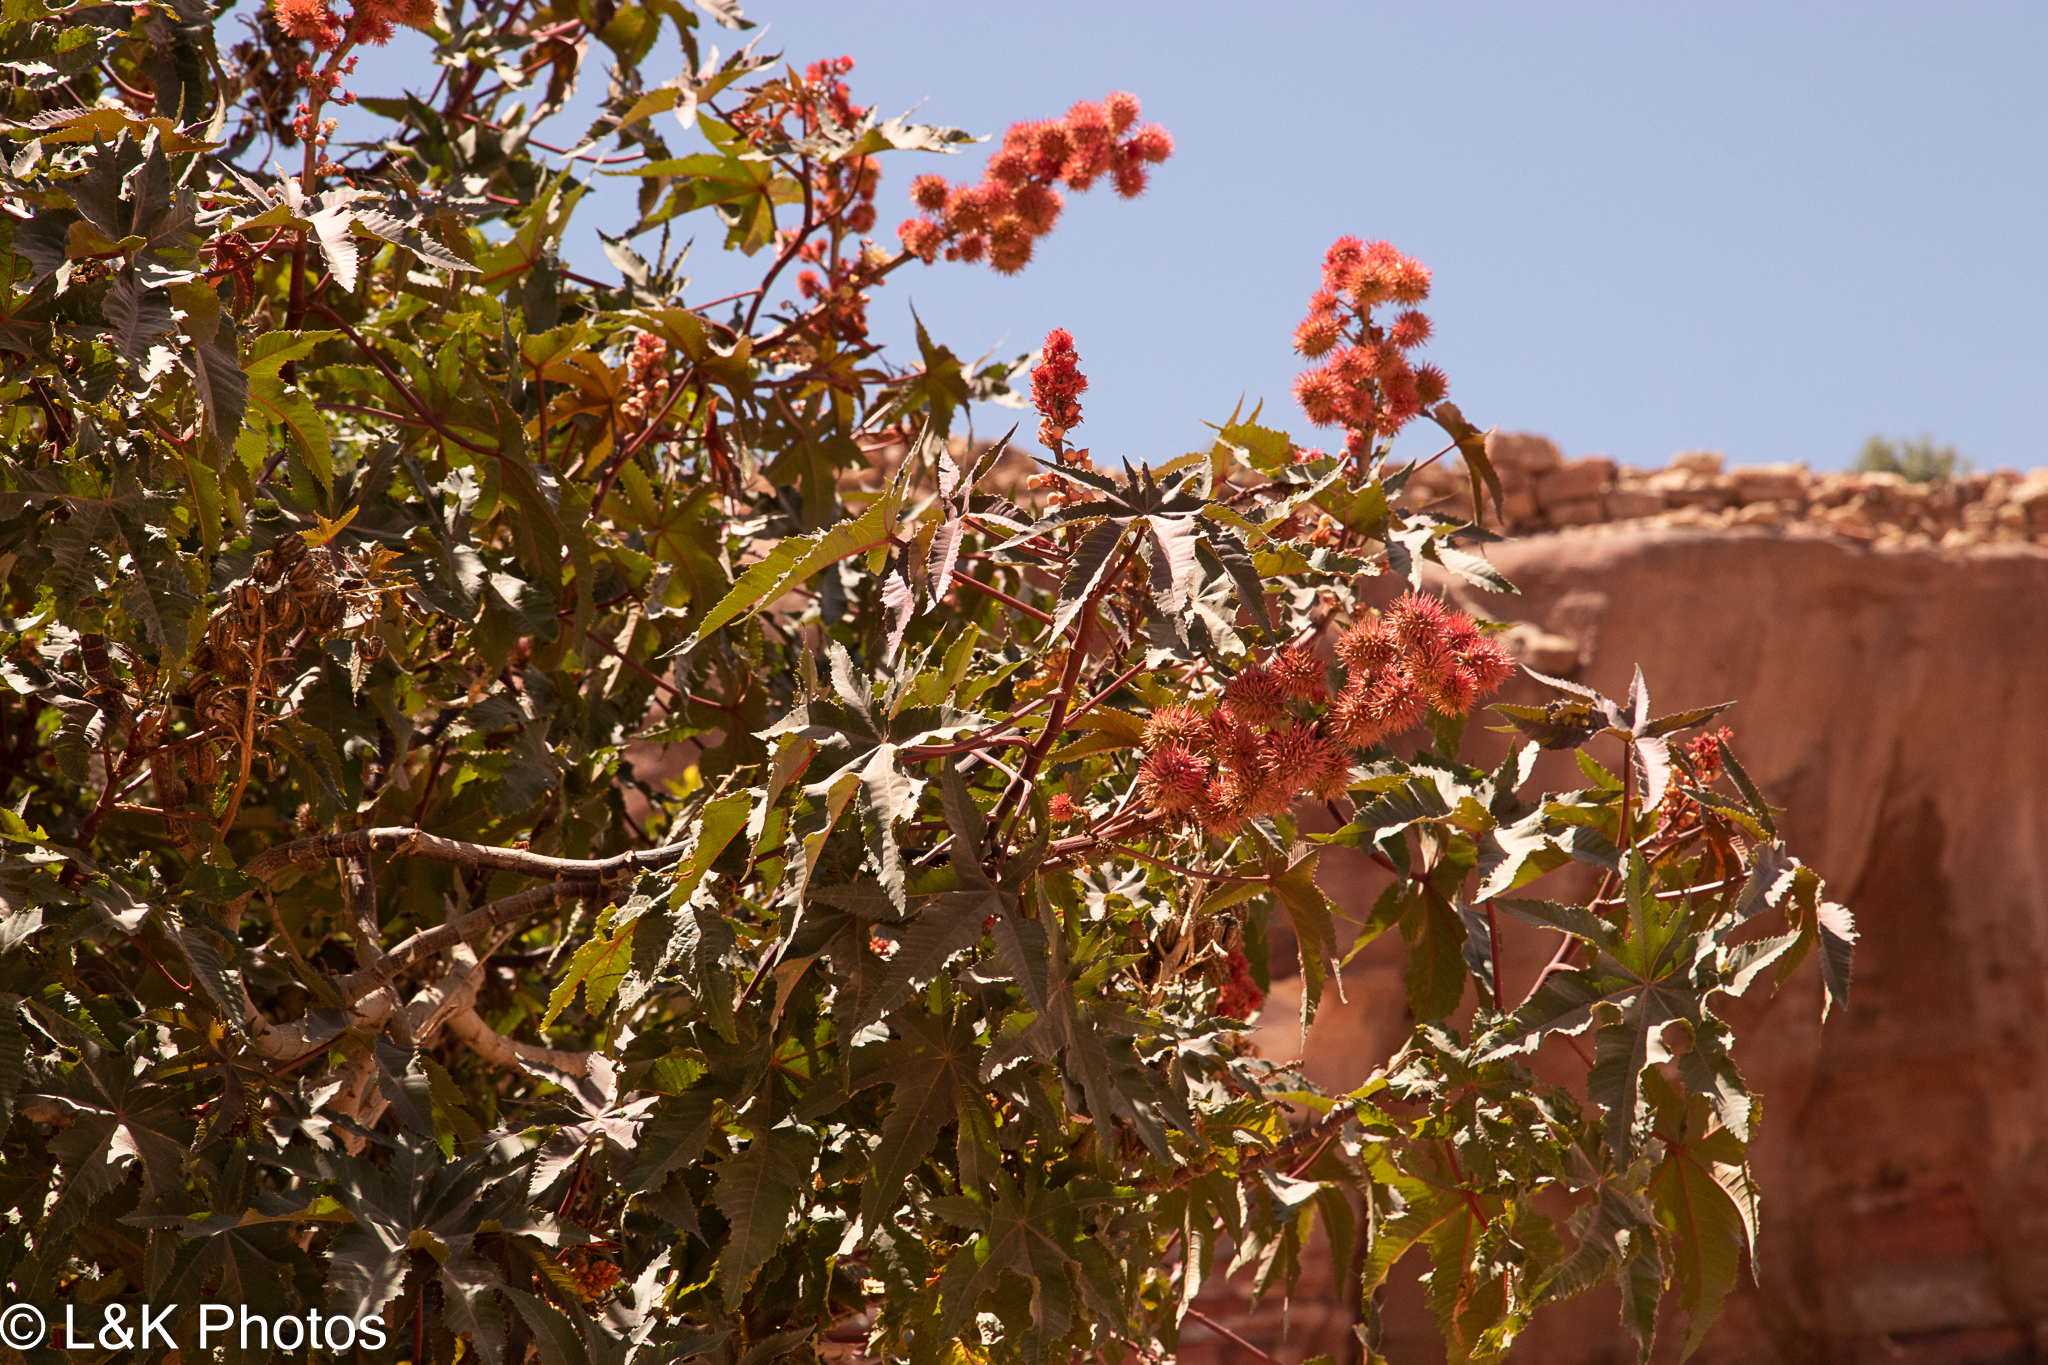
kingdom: Plantae
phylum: Tracheophyta
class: Magnoliopsida
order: Malpighiales
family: Euphorbiaceae
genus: Ricinus
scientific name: Ricinus communis
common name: Castor-oil-plant
